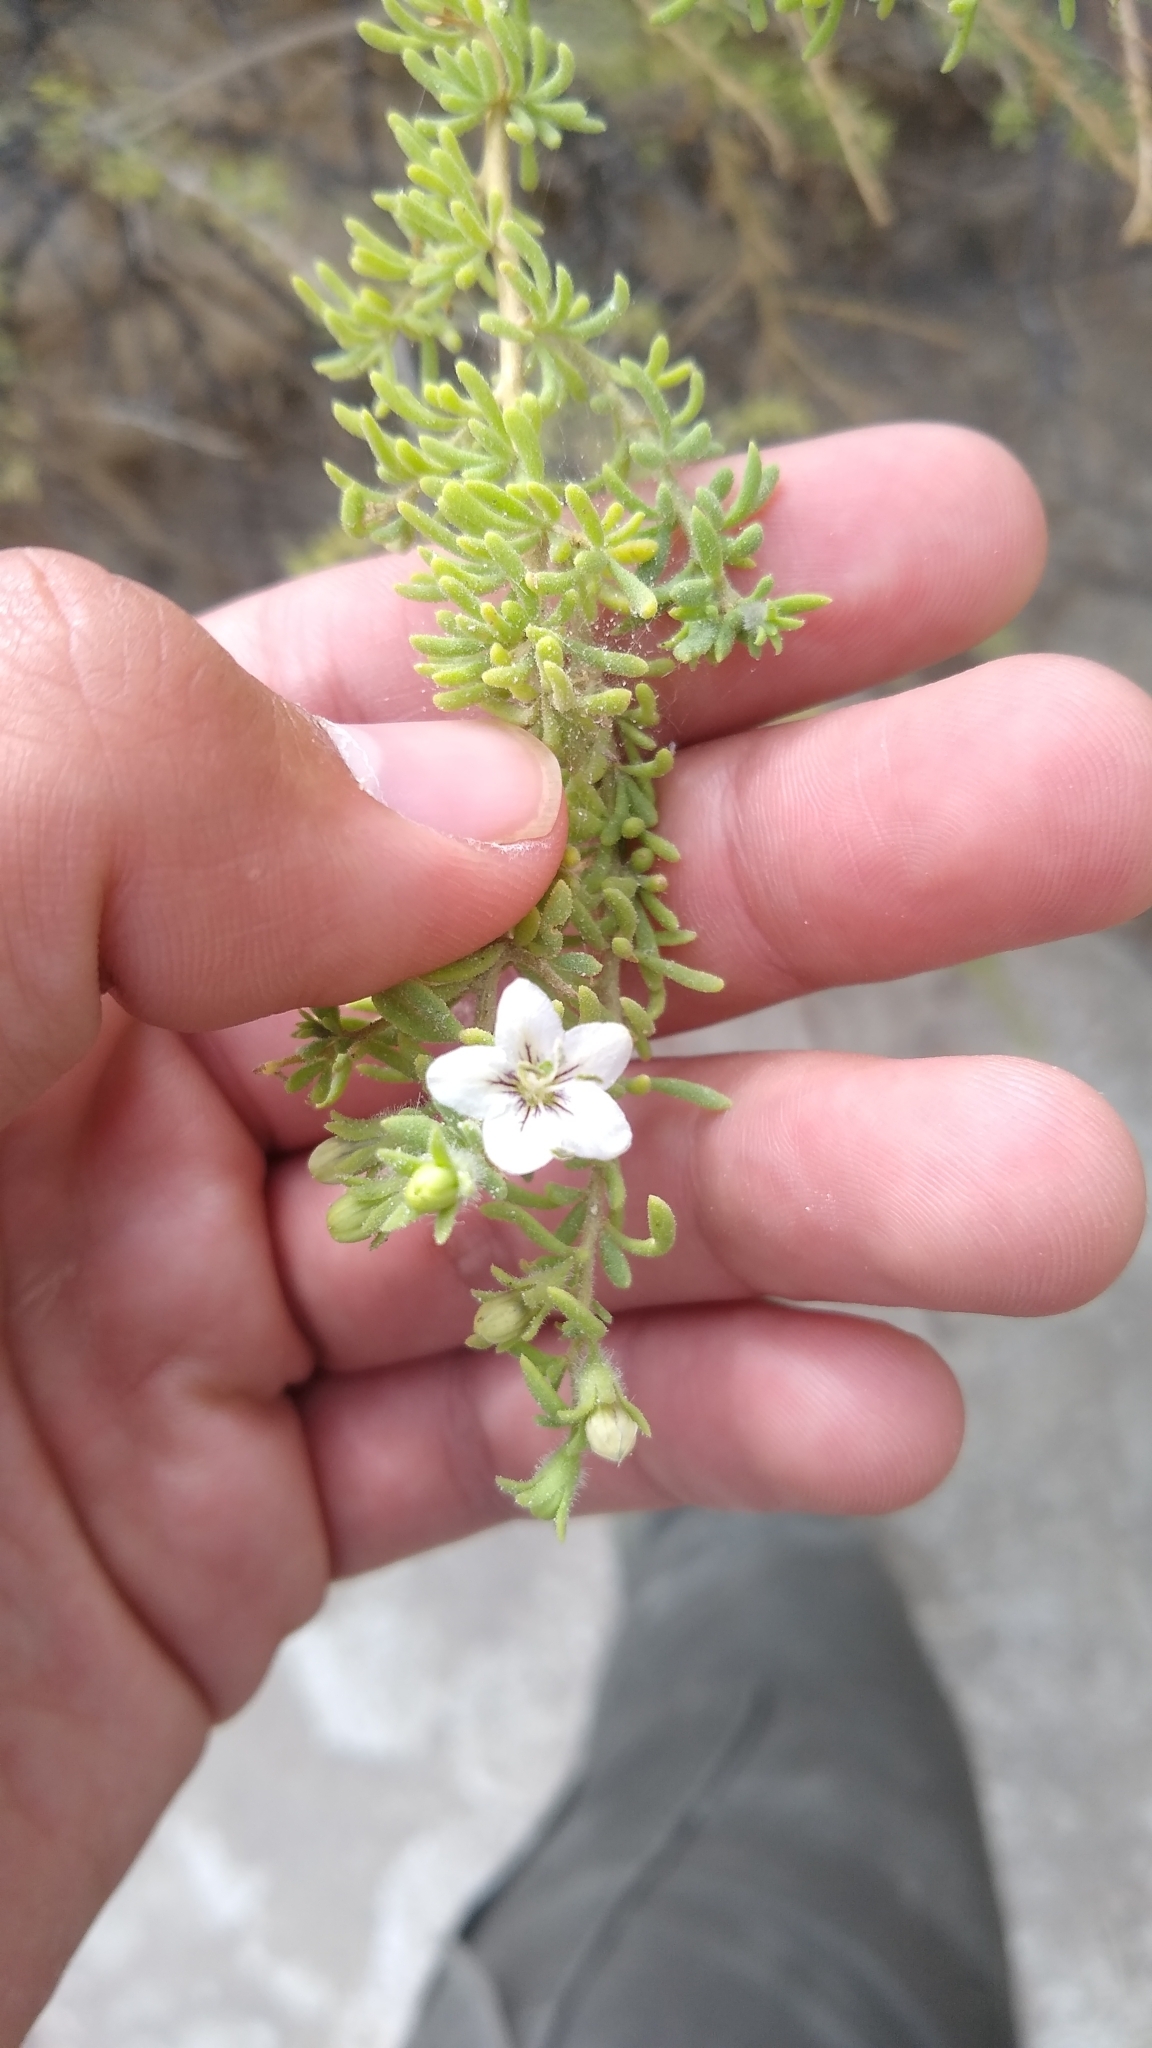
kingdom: Plantae
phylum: Tracheophyta
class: Magnoliopsida
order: Solanales
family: Solanaceae
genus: Lycium
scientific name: Lycium infaustum
